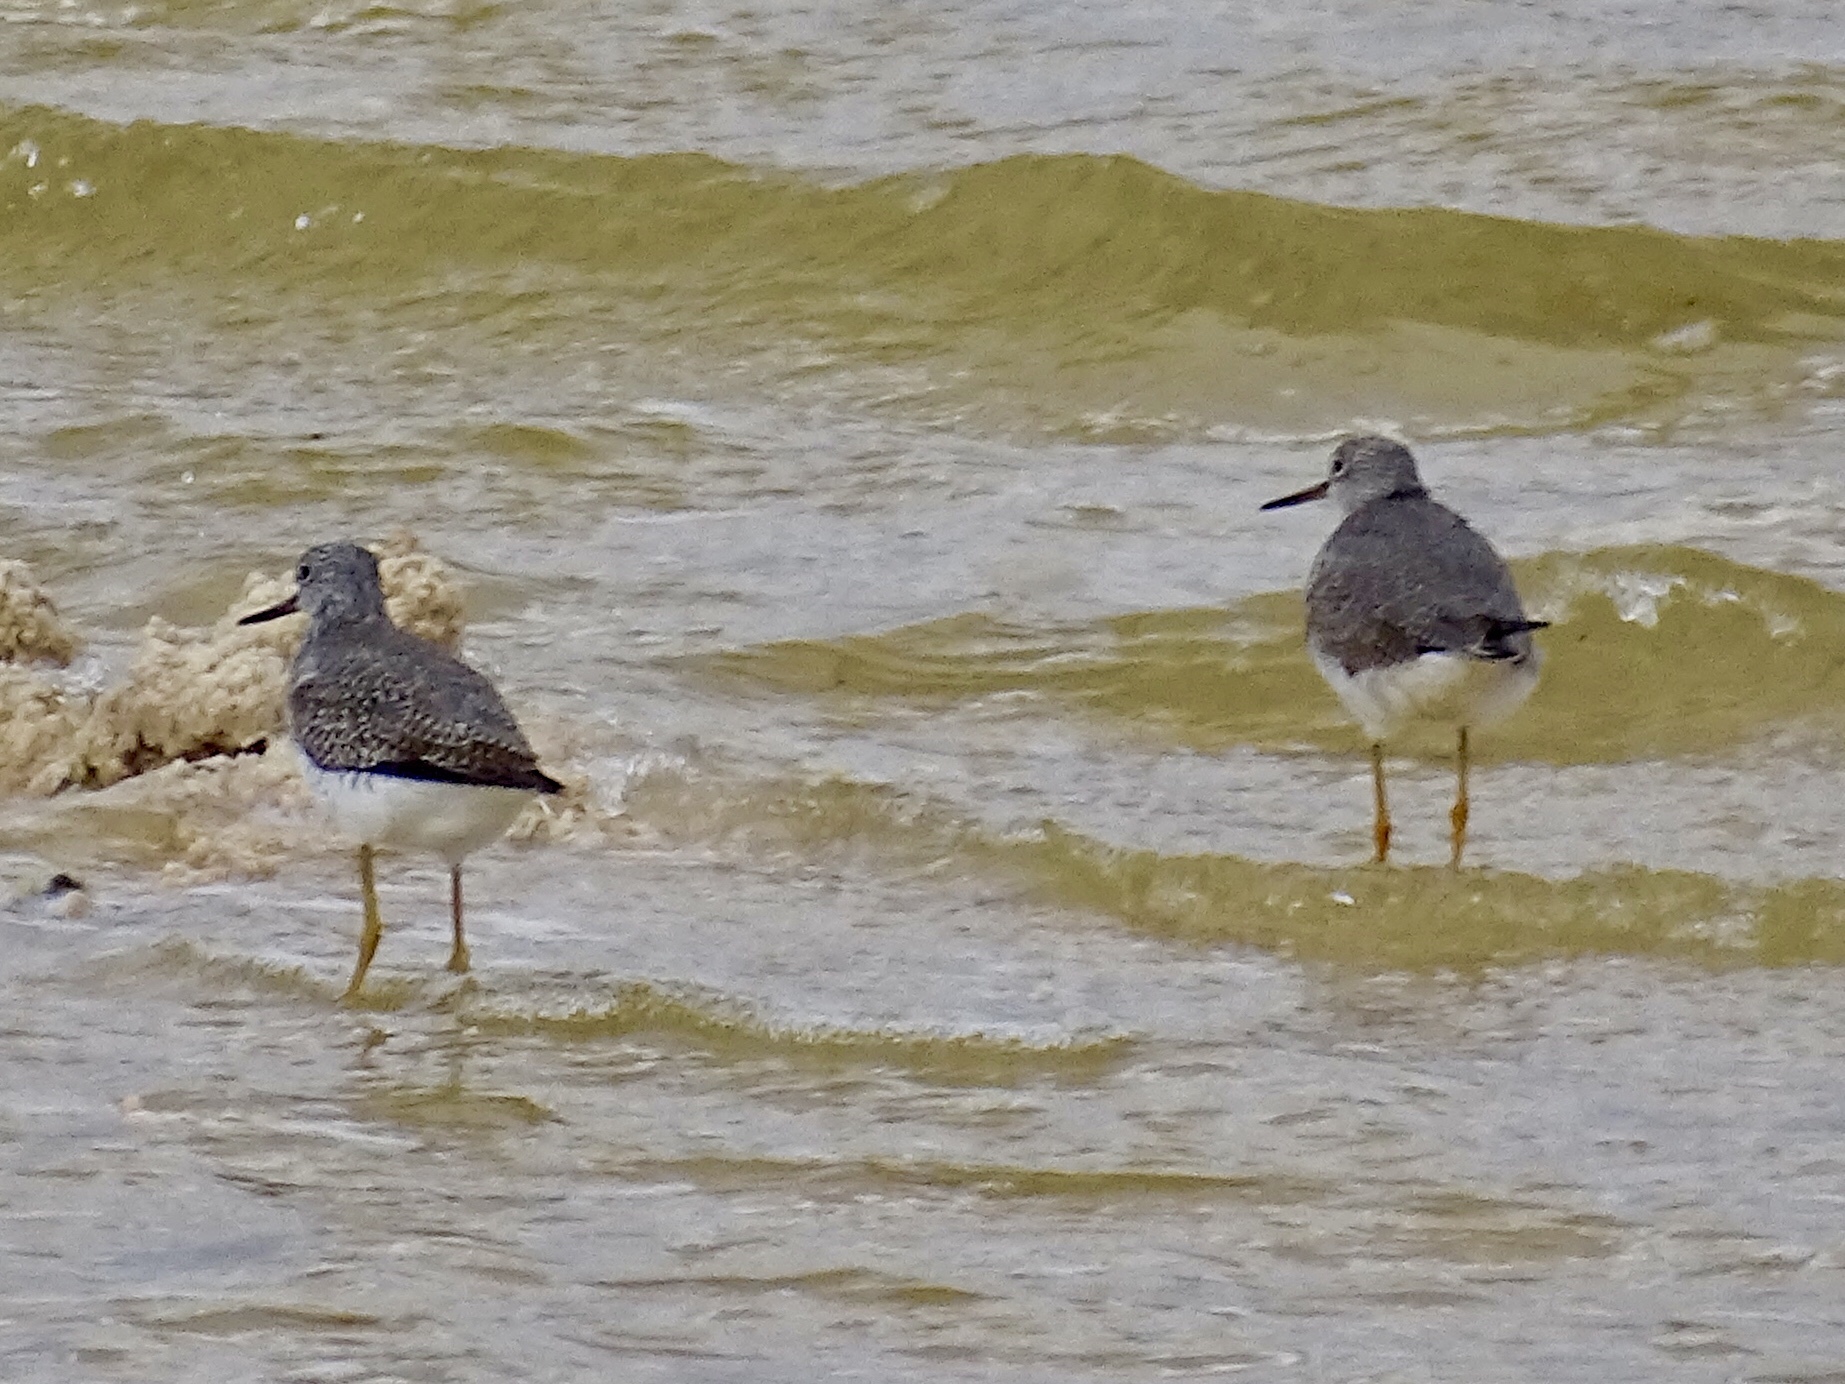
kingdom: Animalia
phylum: Chordata
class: Aves
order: Charadriiformes
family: Scolopacidae
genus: Tringa
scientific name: Tringa melanoleuca
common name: Greater yellowlegs
